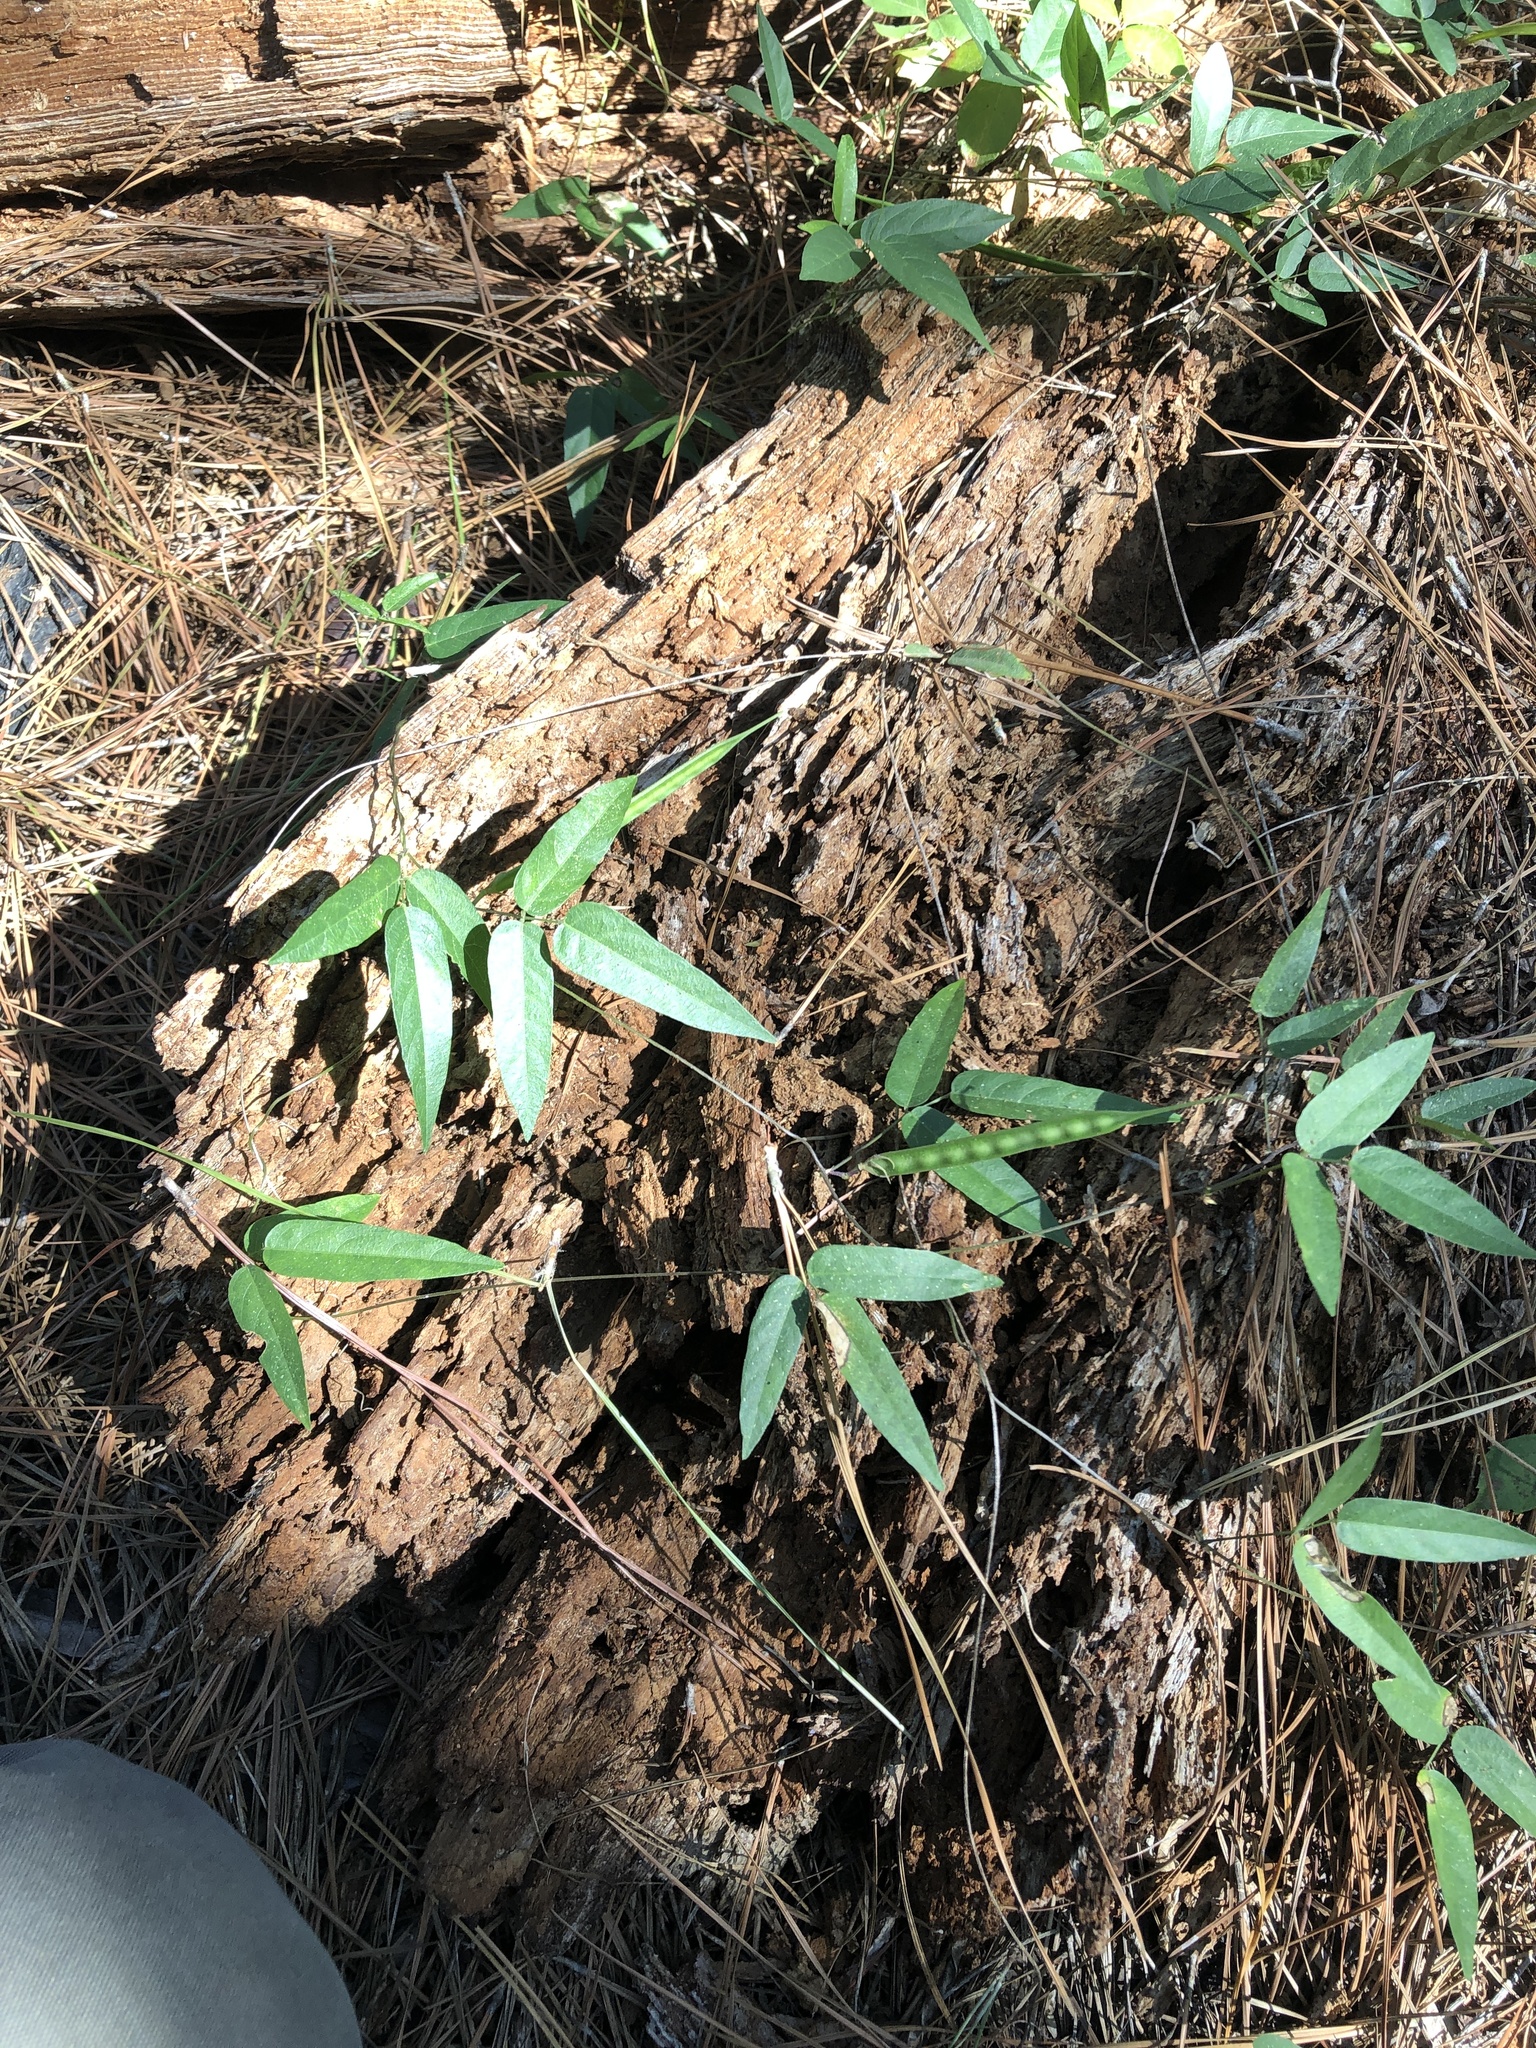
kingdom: Plantae
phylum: Tracheophyta
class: Magnoliopsida
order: Fabales
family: Fabaceae
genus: Centrosema
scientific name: Centrosema virginianum
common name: Butterfly-pea
